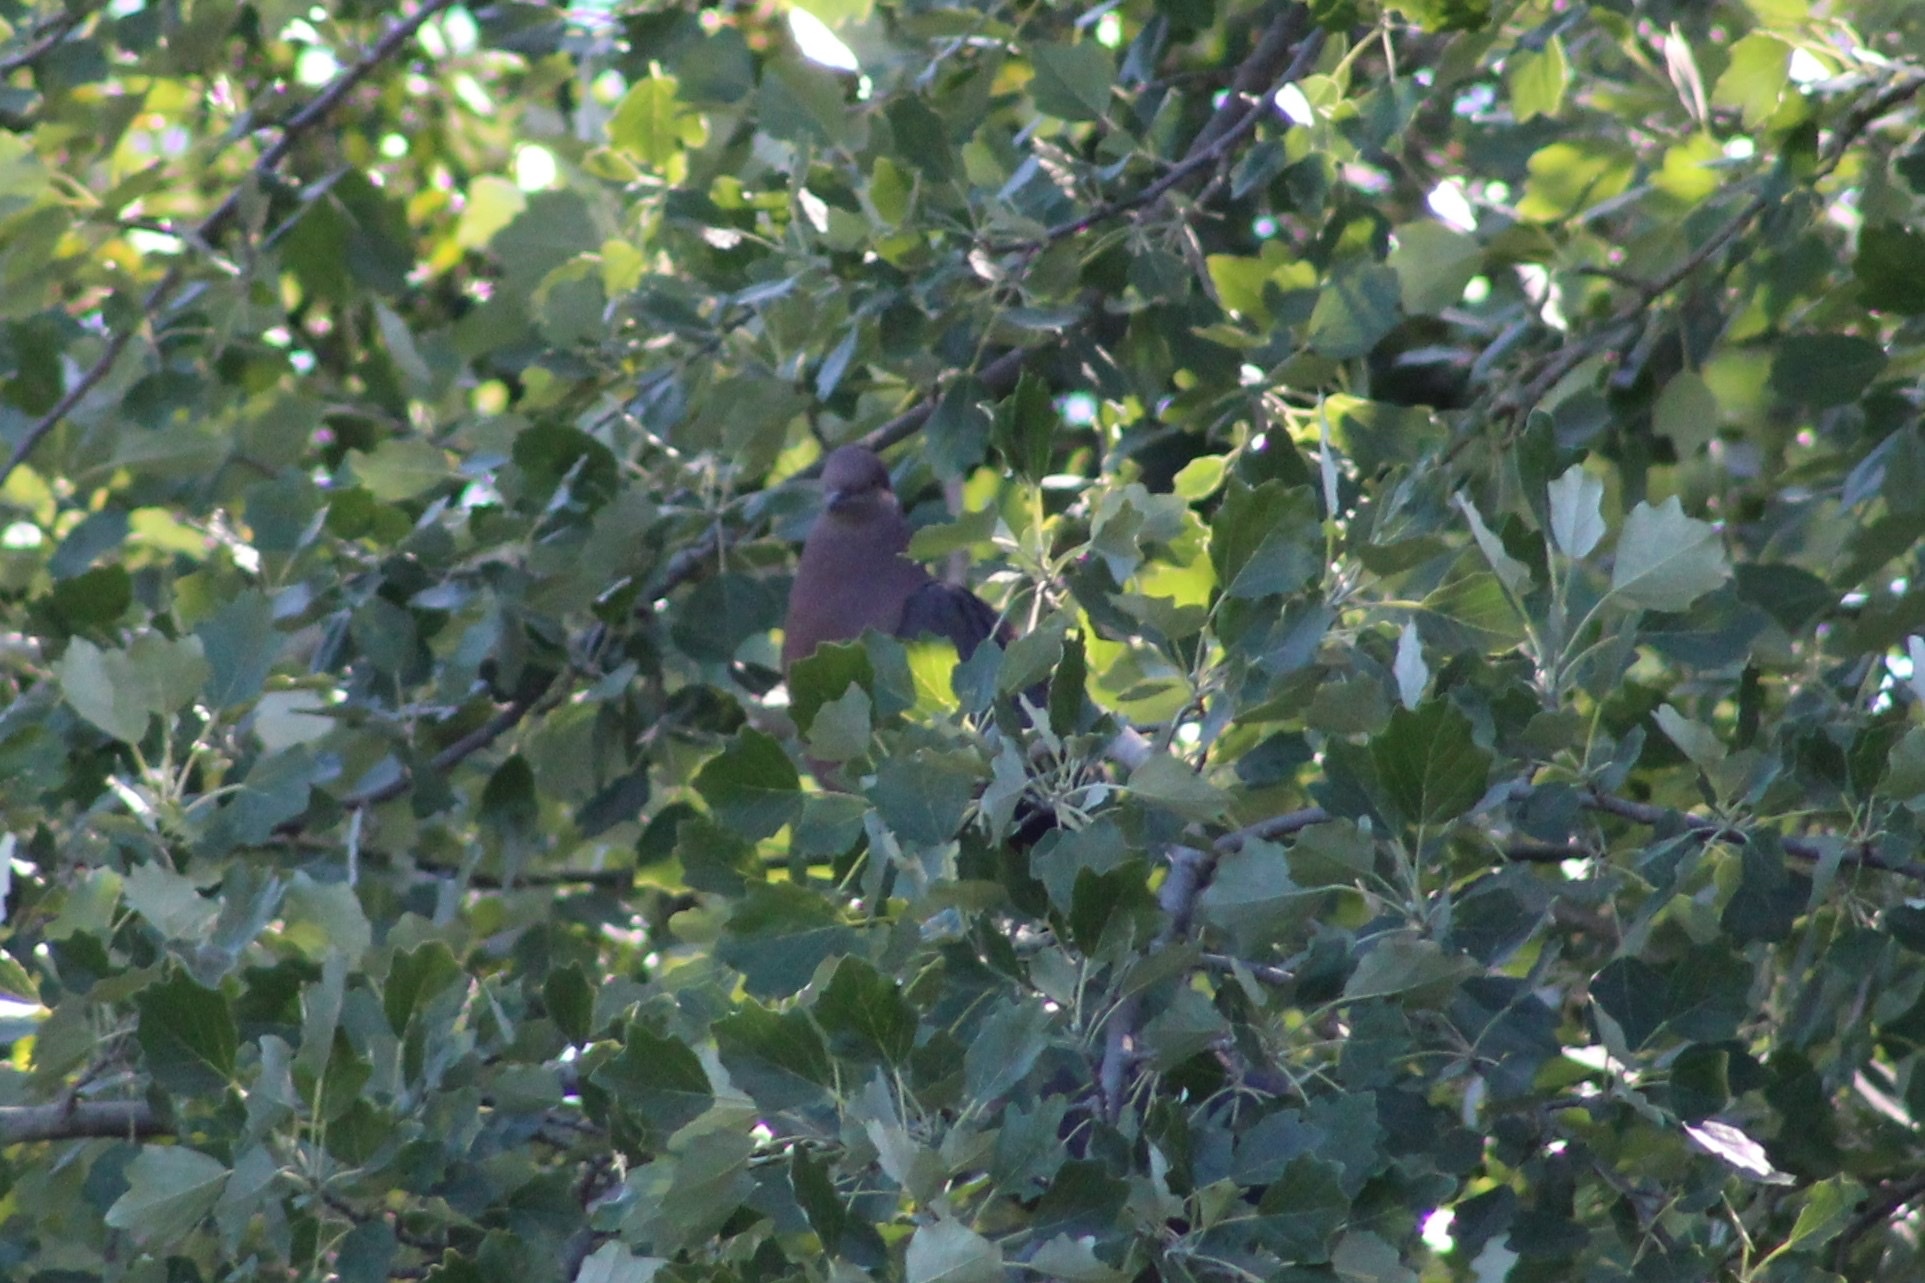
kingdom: Animalia
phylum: Chordata
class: Aves
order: Columbiformes
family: Columbidae
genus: Patagioenas
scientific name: Patagioenas araucana
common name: Chilean pigeon
